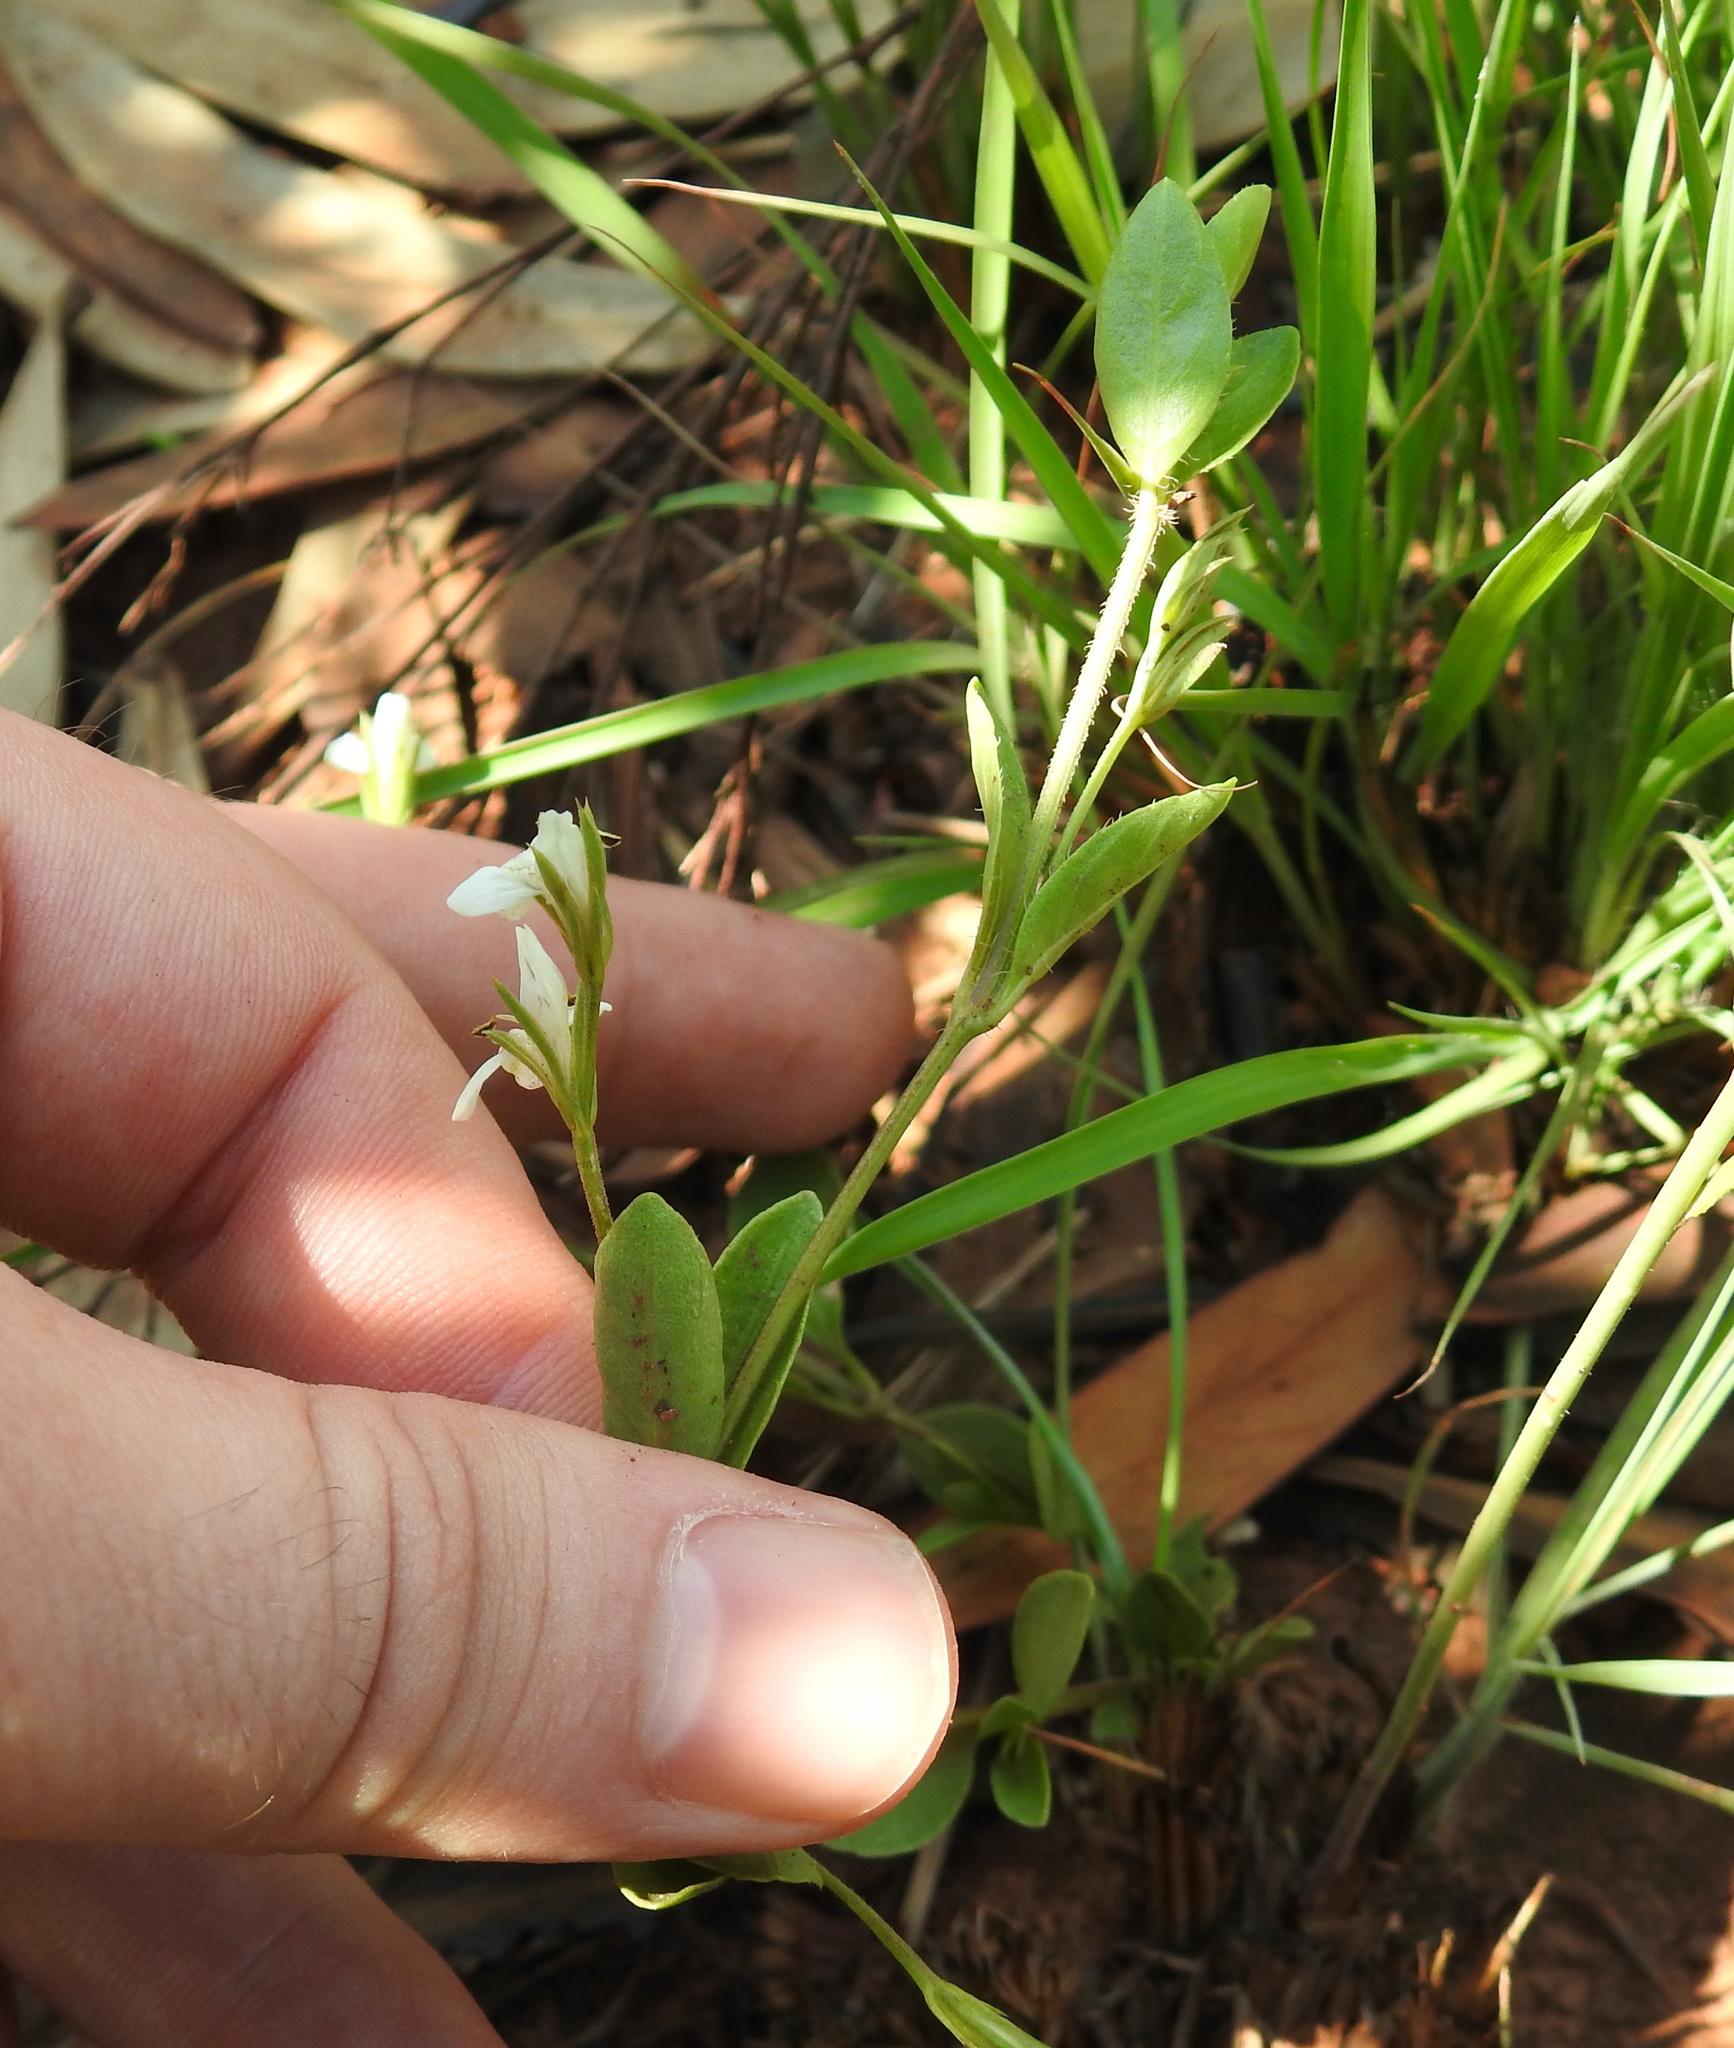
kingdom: Plantae
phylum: Tracheophyta
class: Magnoliopsida
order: Lamiales
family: Acanthaceae
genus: Justicia
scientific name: Justicia anagalloides
